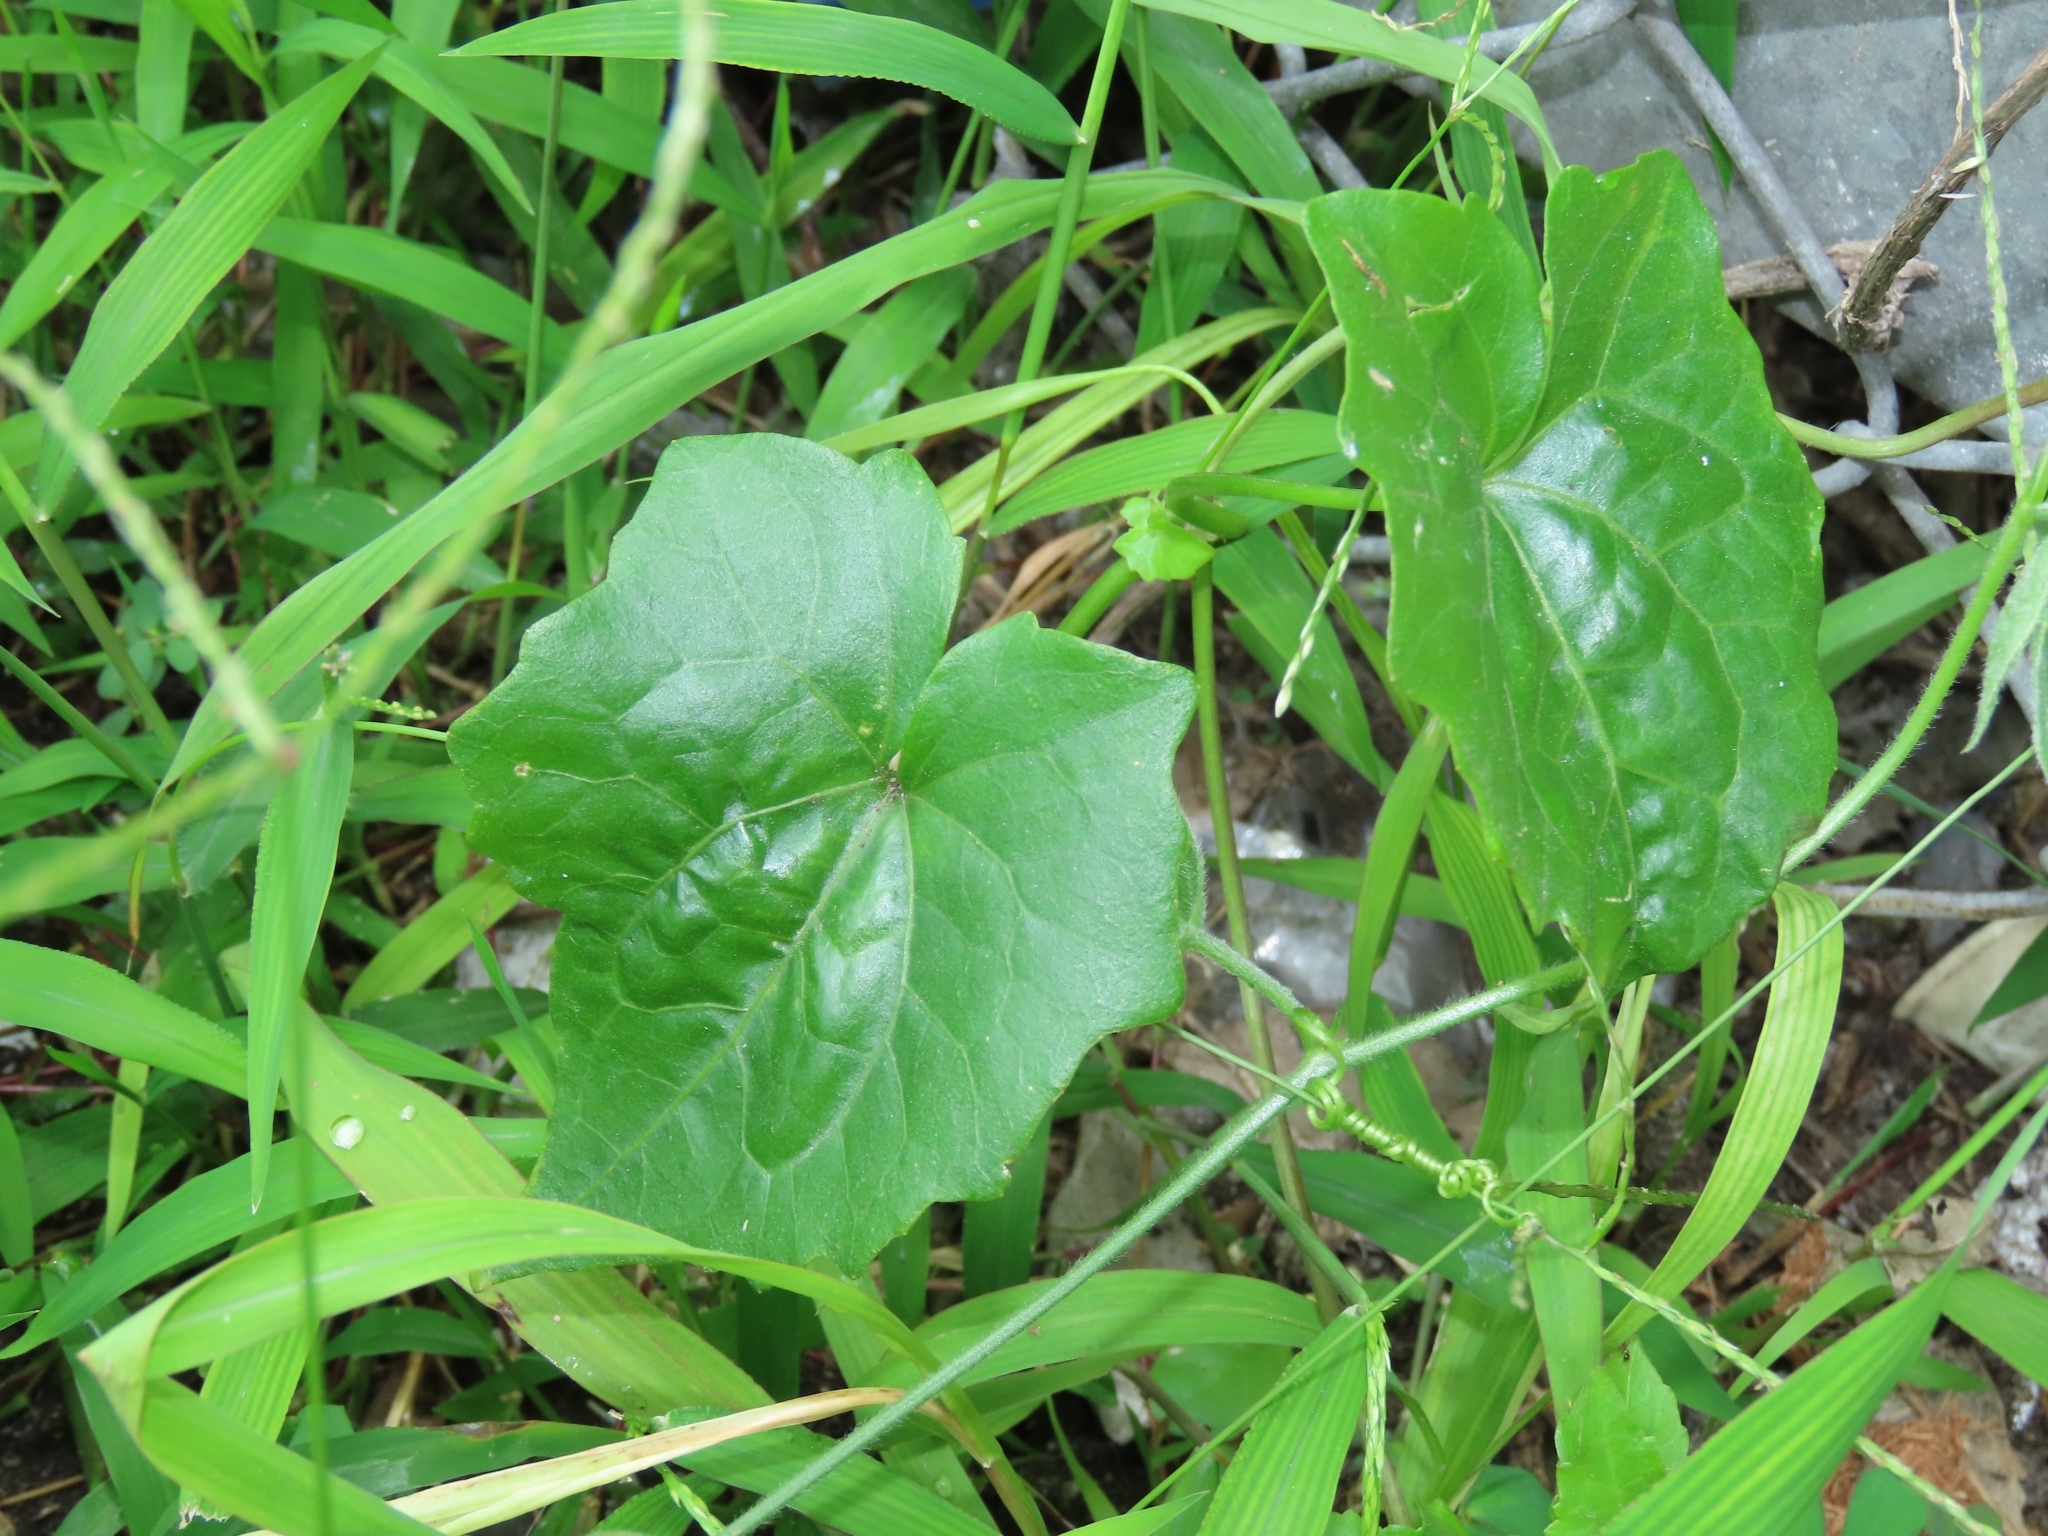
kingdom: Plantae
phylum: Tracheophyta
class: Magnoliopsida
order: Asterales
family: Asteraceae
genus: Mikania
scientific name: Mikania micrantha
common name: Mile-a-minute
